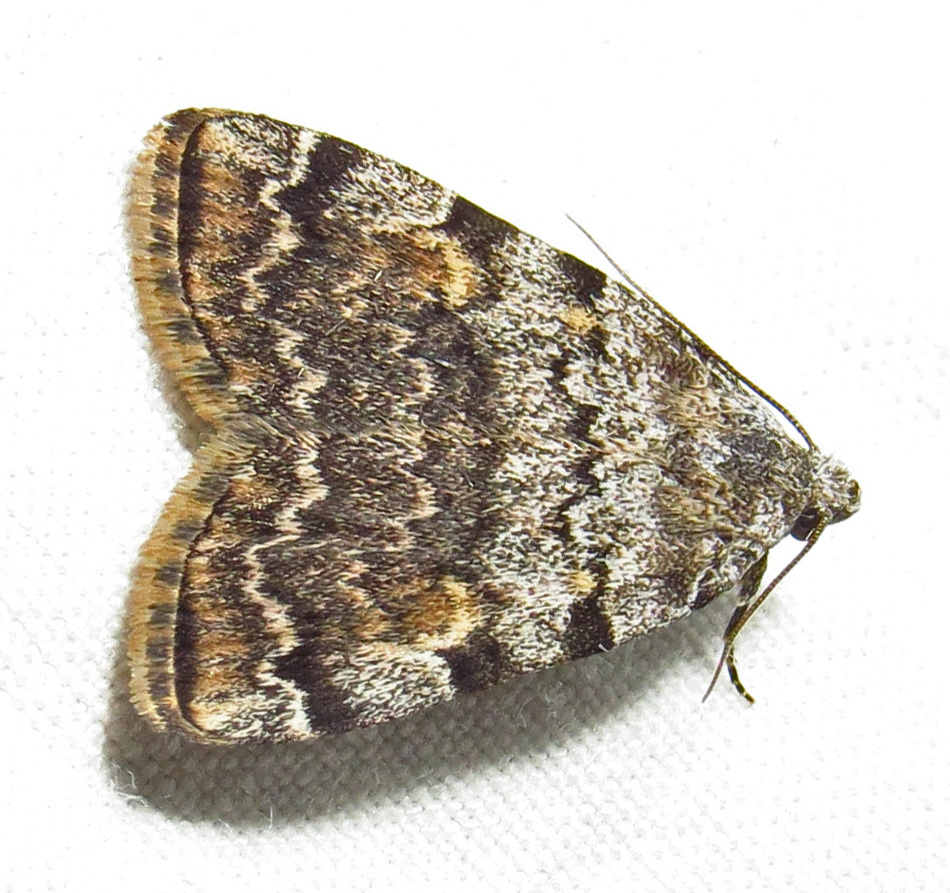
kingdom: Animalia
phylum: Arthropoda
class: Insecta
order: Lepidoptera
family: Erebidae
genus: Idia
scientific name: Idia americalis
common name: American idia moth
